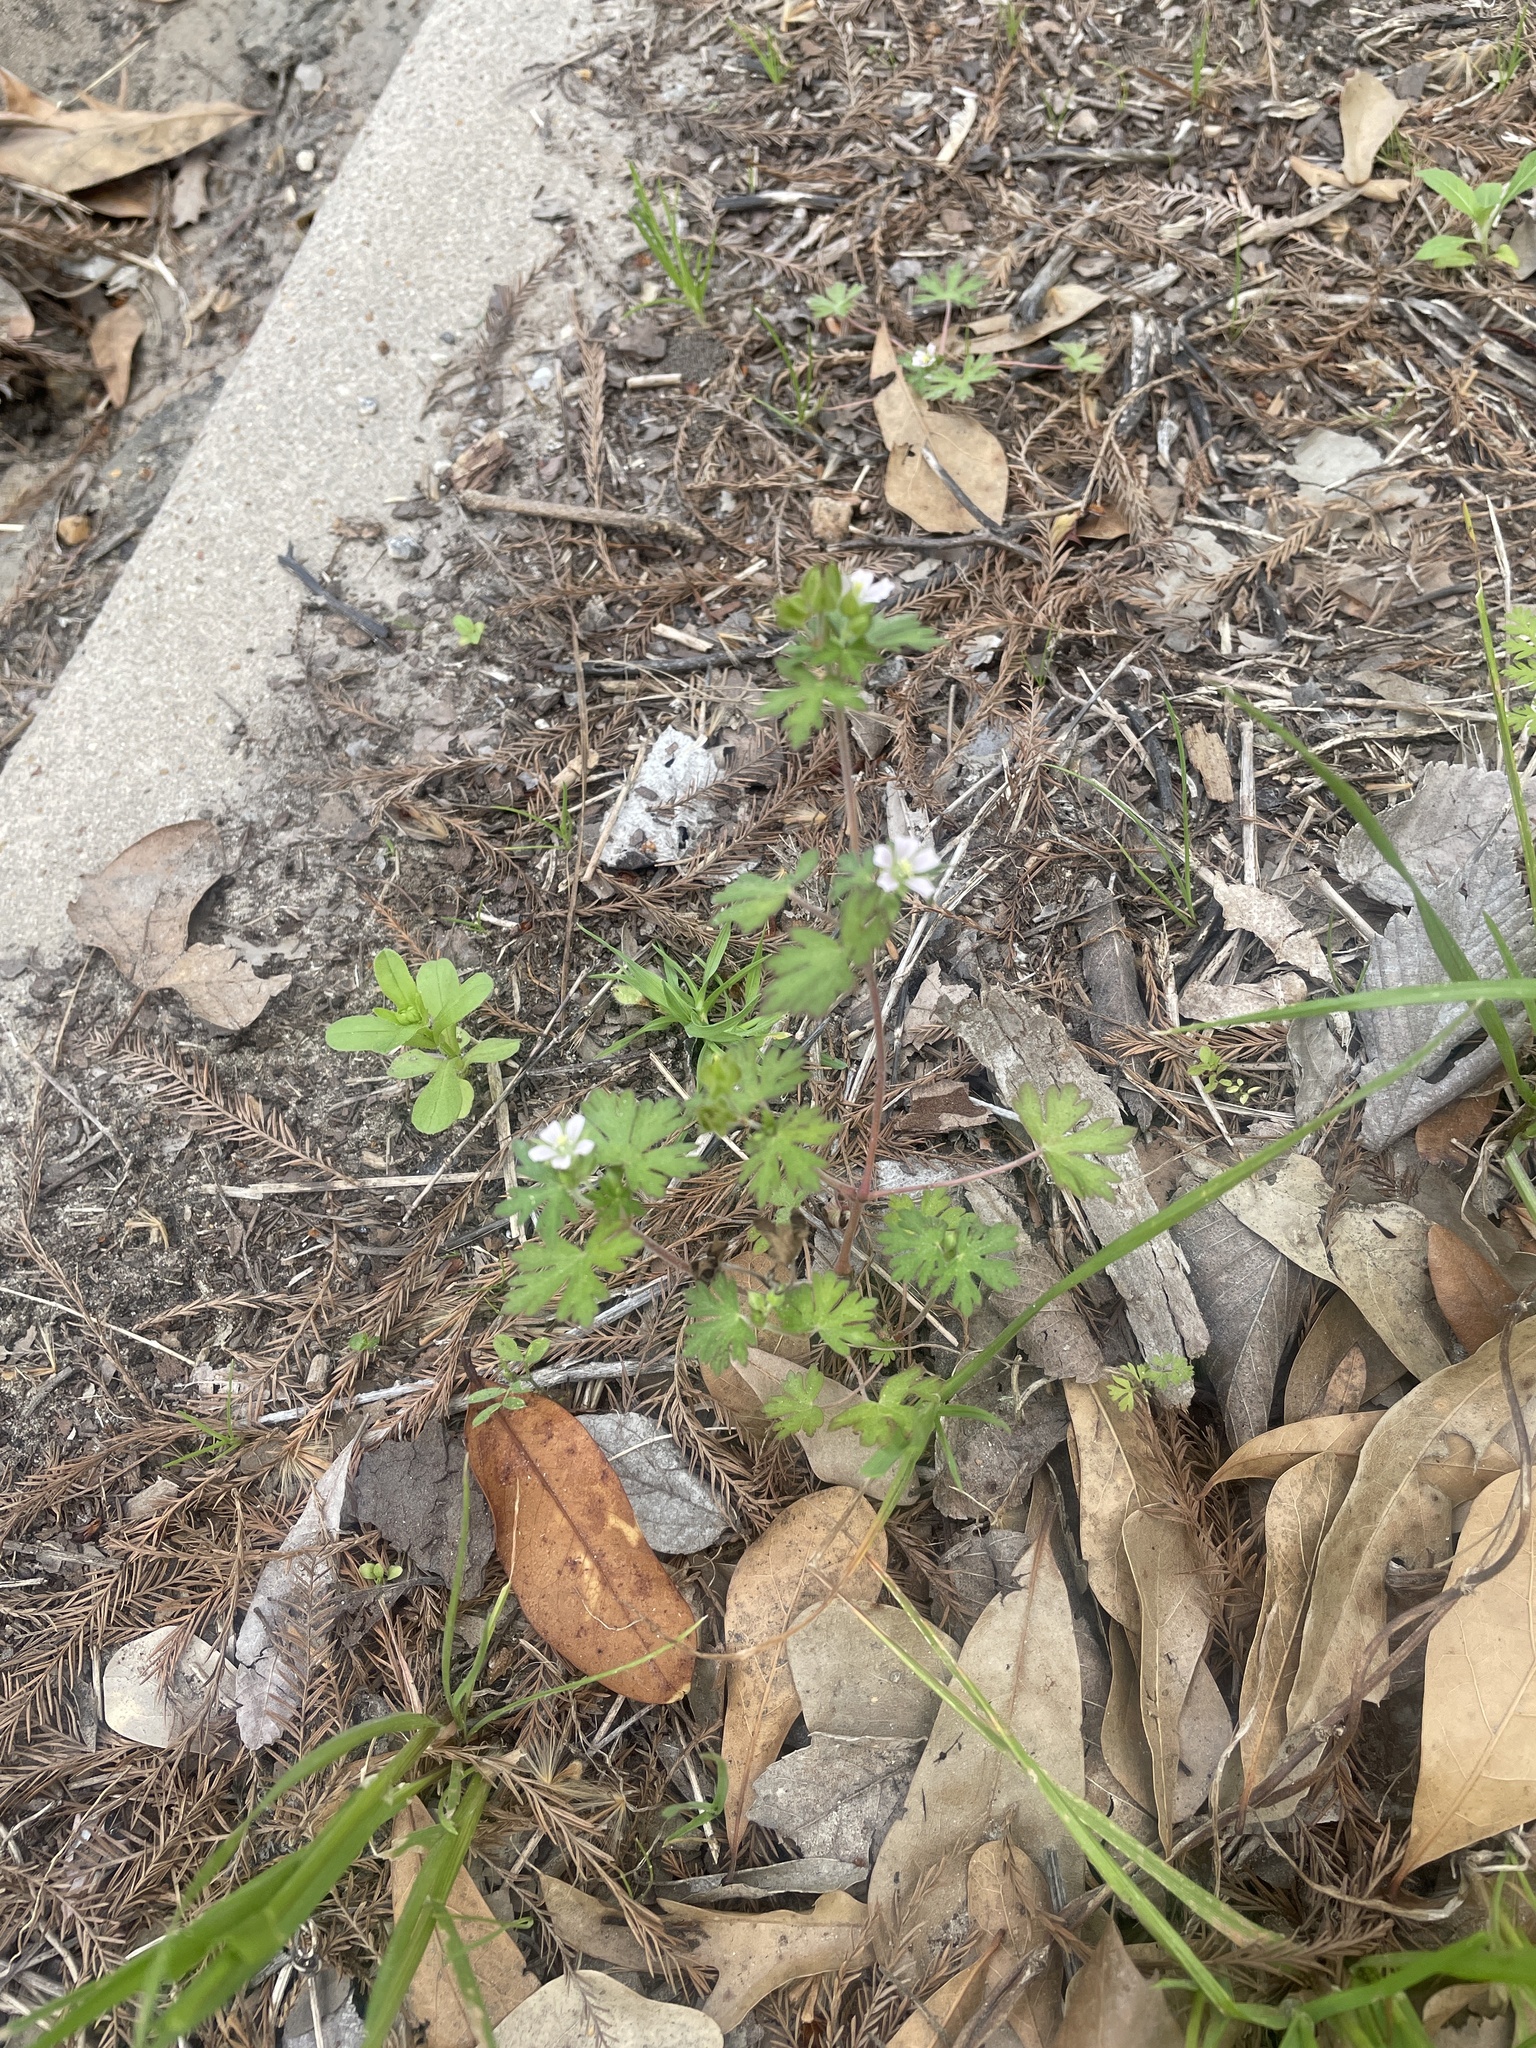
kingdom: Plantae
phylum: Tracheophyta
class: Magnoliopsida
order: Geraniales
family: Geraniaceae
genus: Geranium
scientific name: Geranium carolinianum
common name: Carolina crane's-bill
